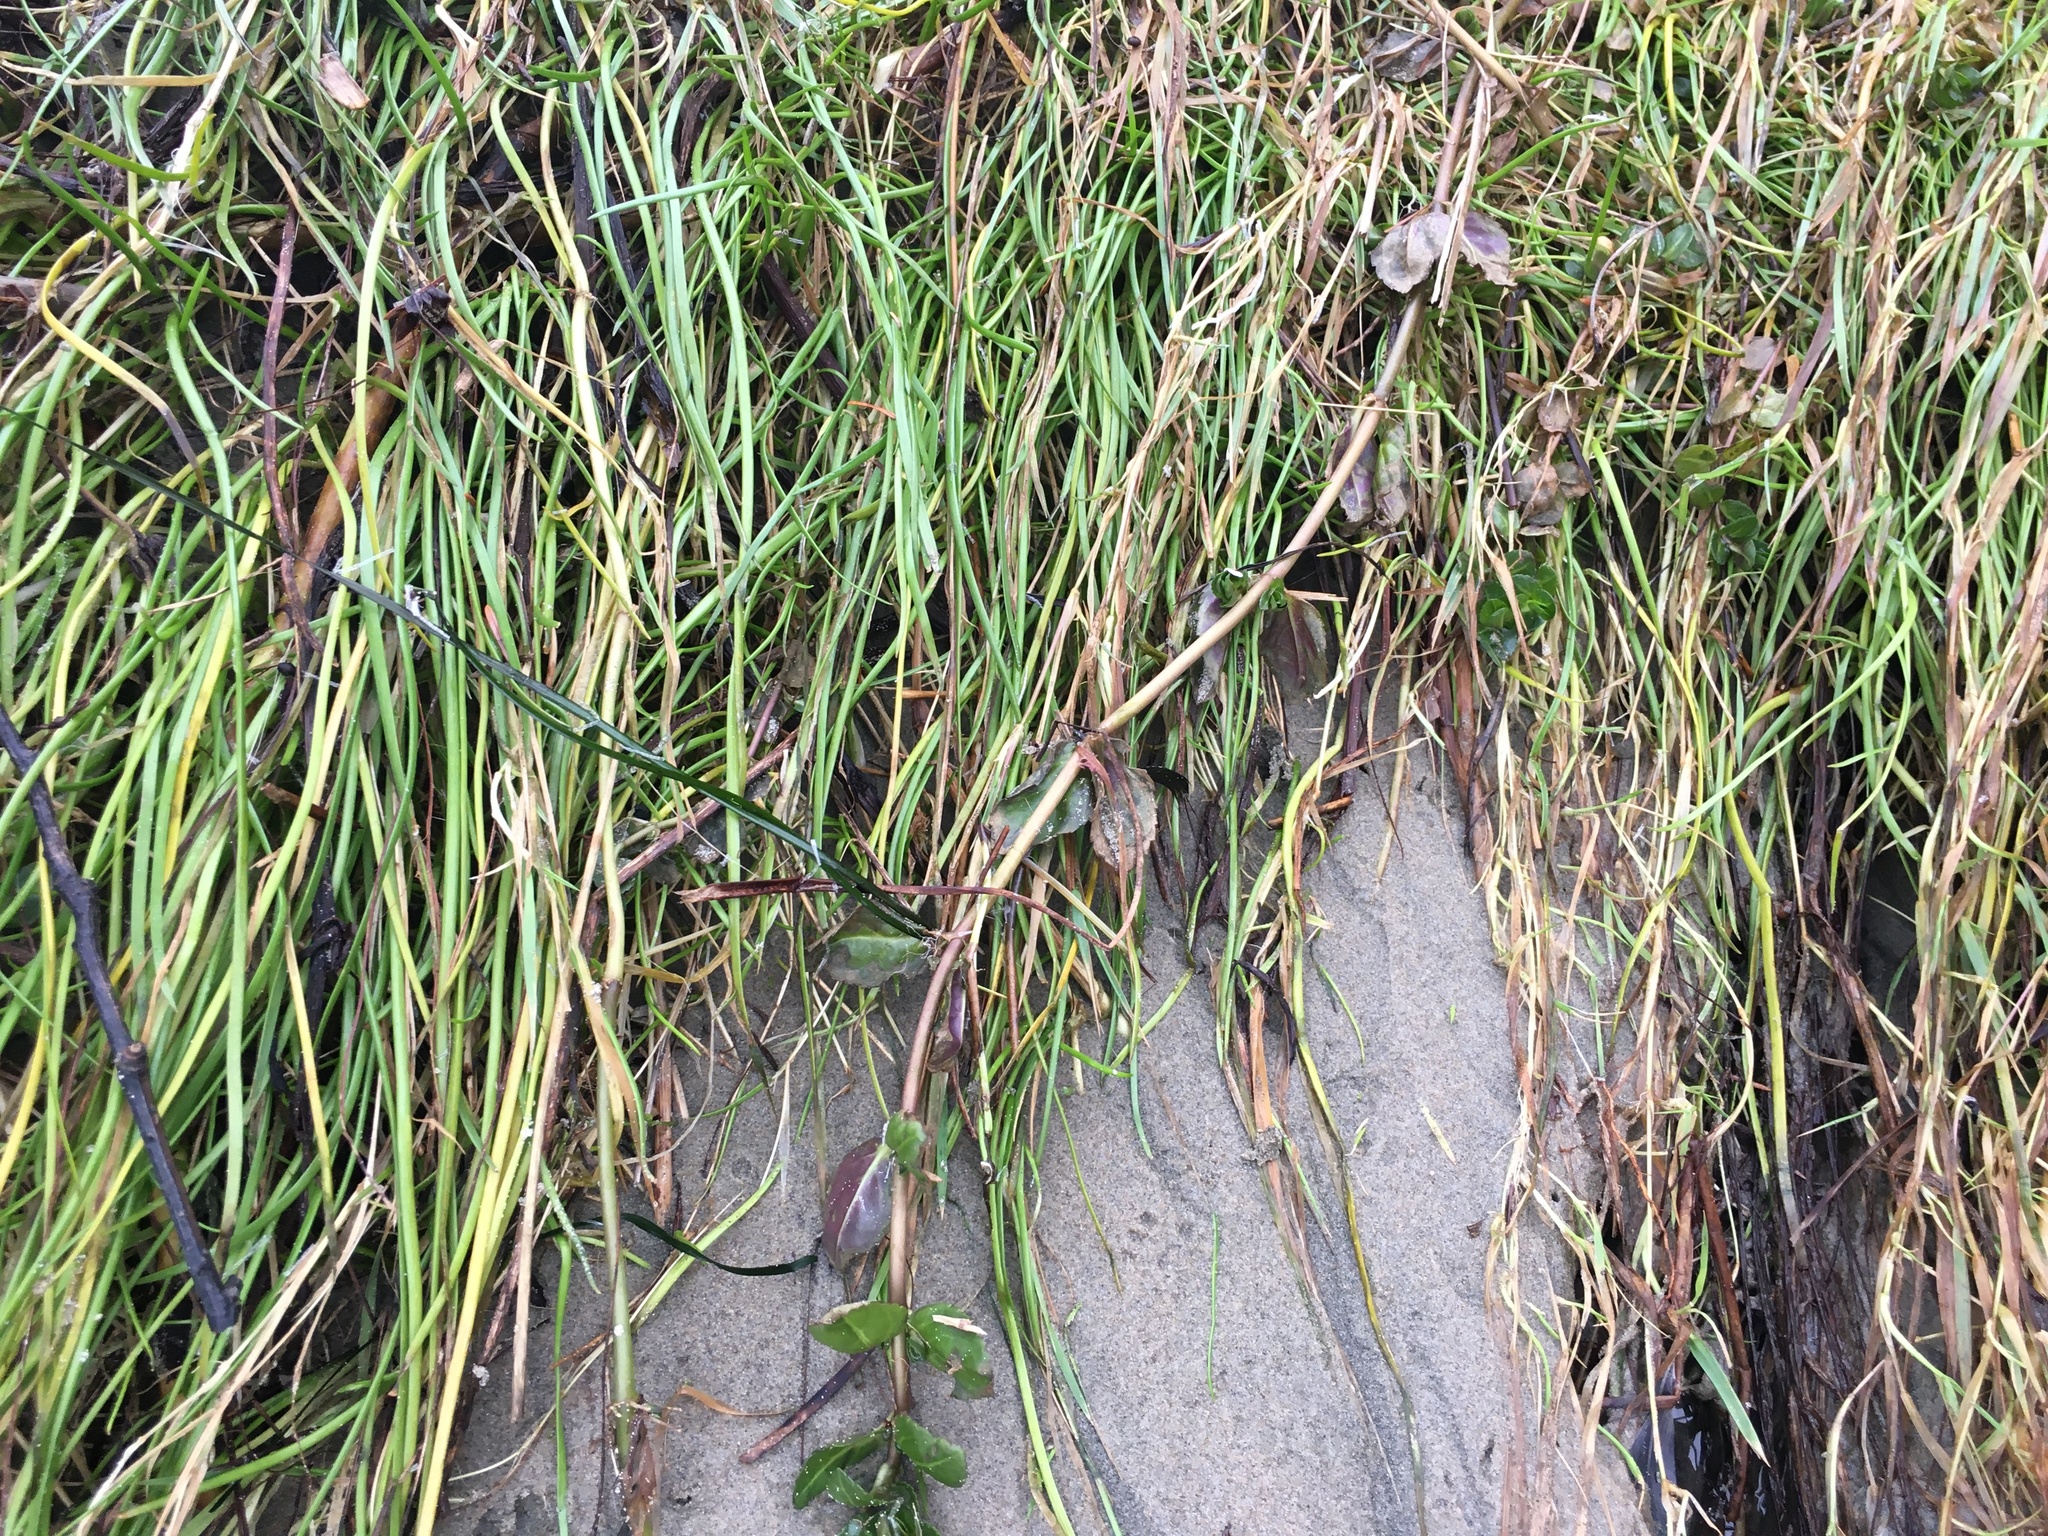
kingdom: Plantae
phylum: Tracheophyta
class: Magnoliopsida
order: Lamiales
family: Plantaginaceae
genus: Veronica
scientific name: Veronica americana
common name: American brooklime
